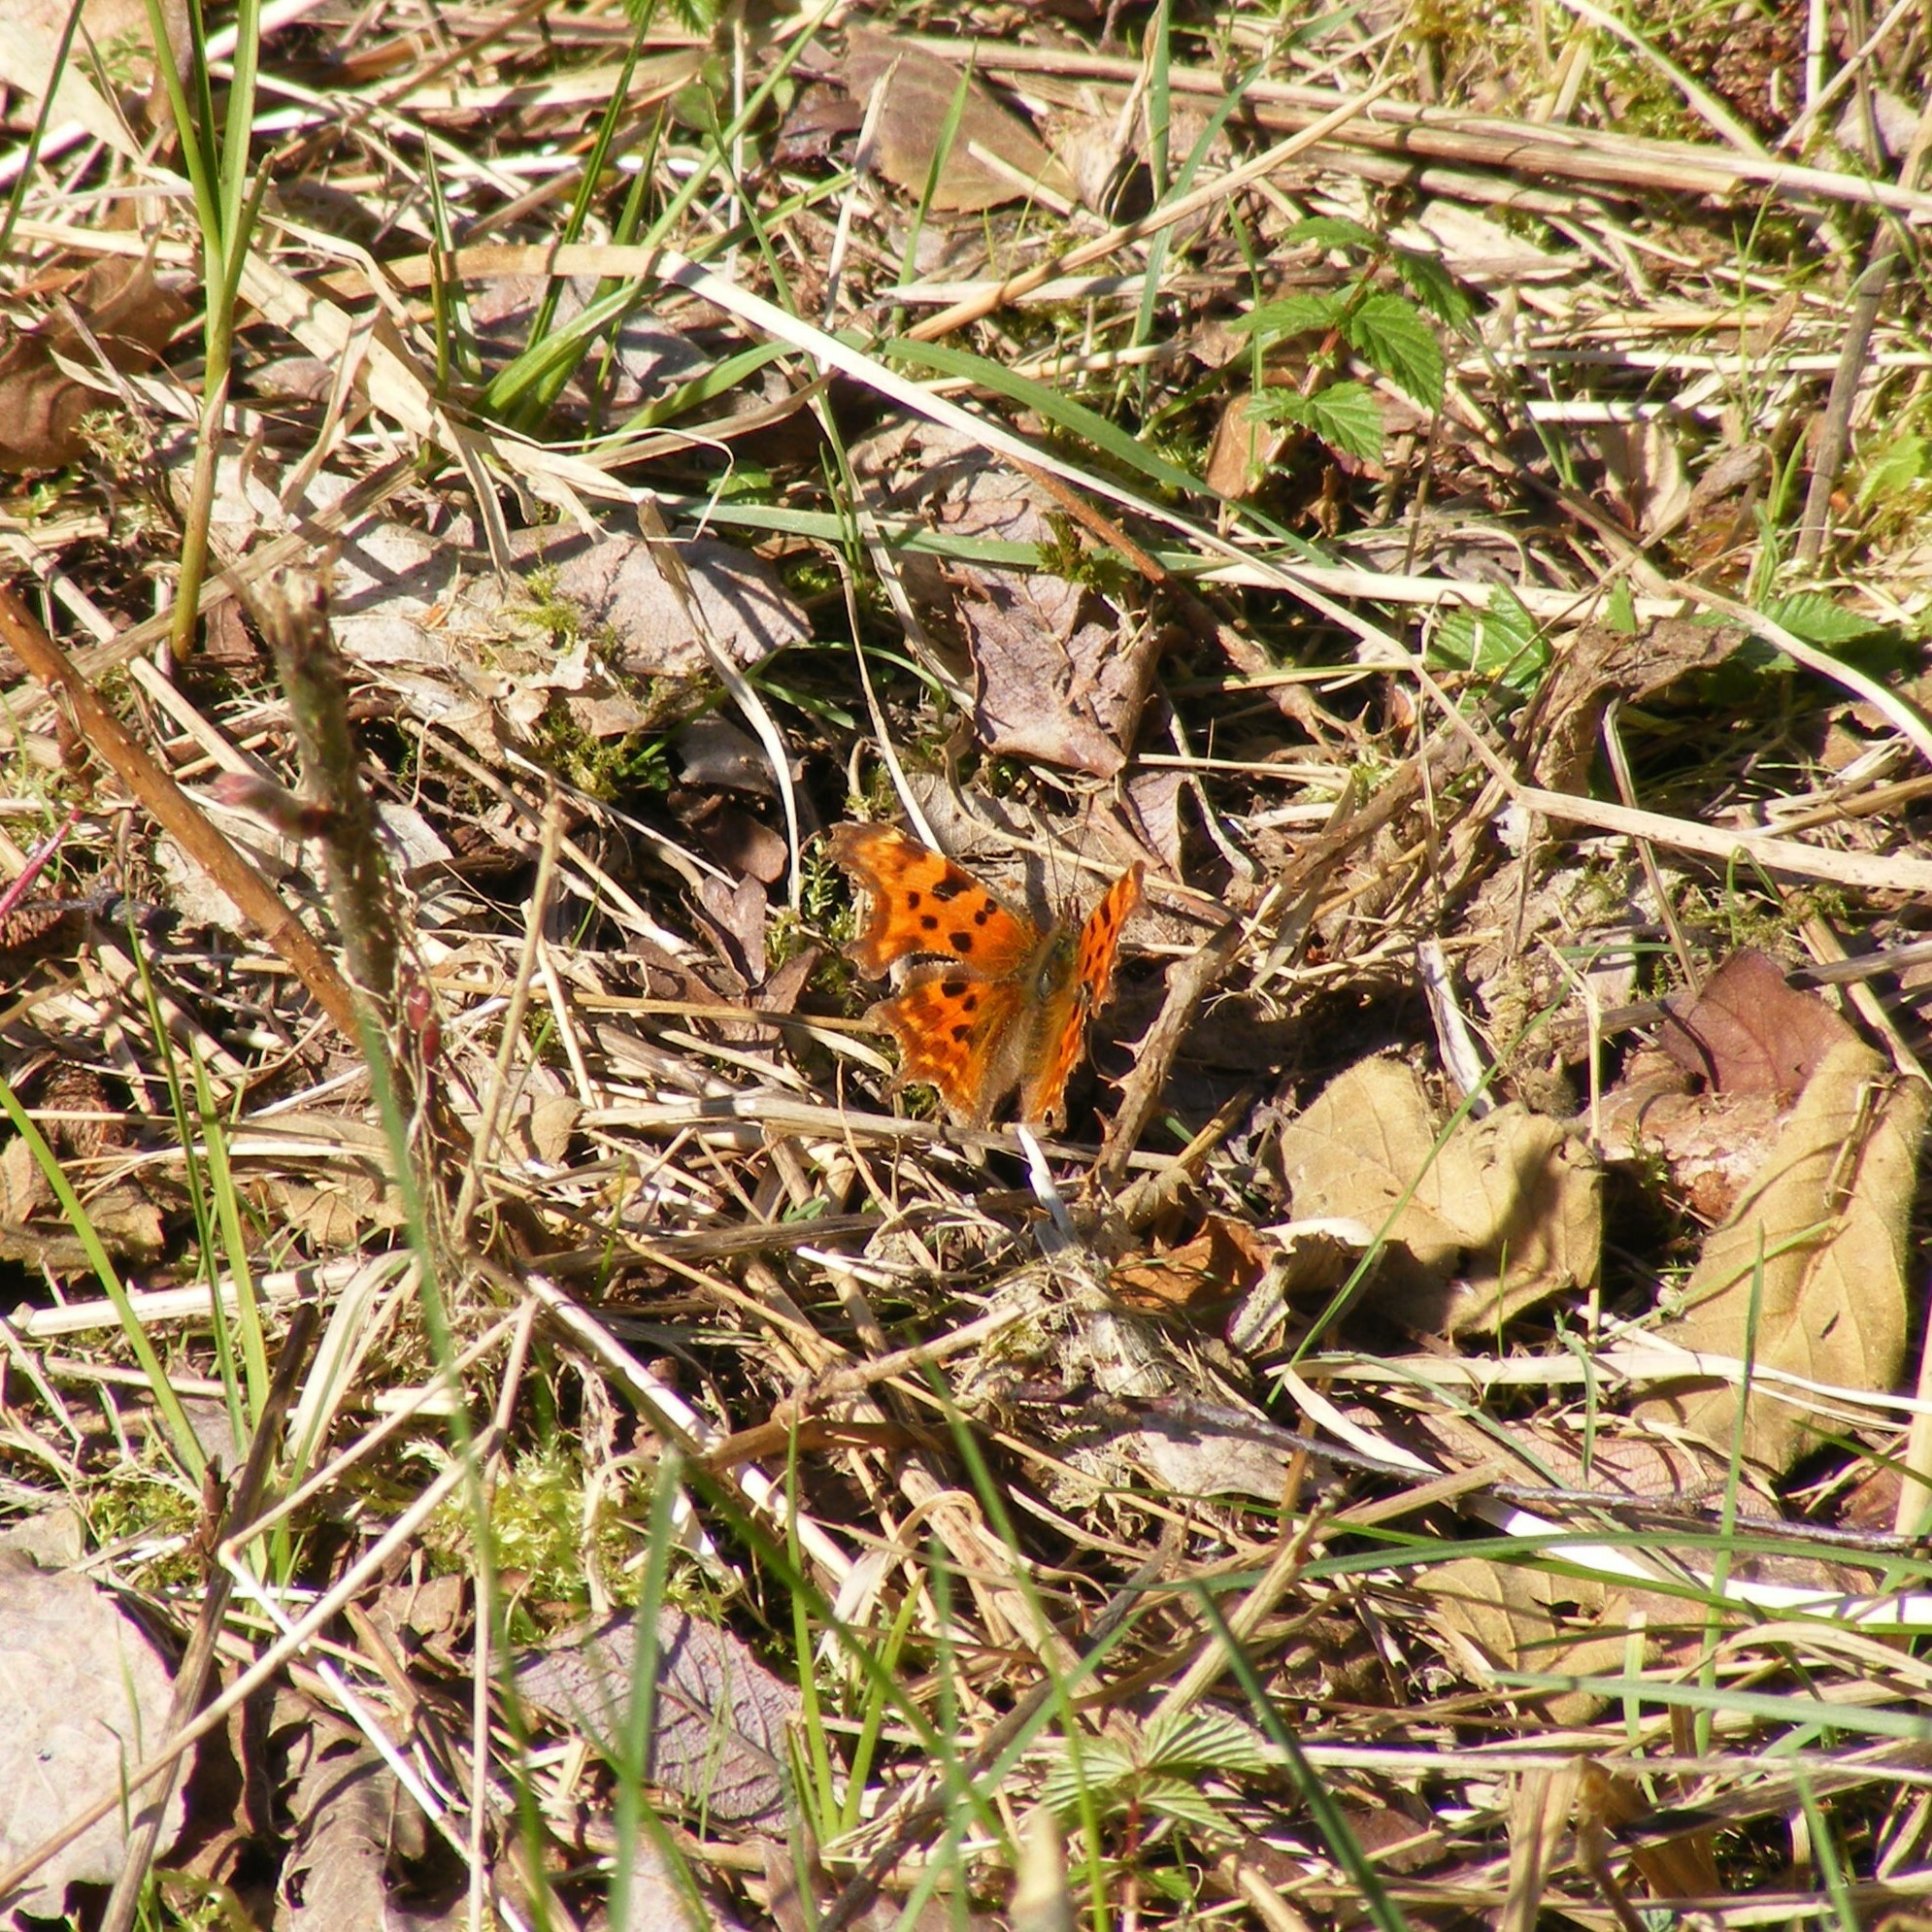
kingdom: Animalia
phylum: Arthropoda
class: Insecta
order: Lepidoptera
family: Nymphalidae
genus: Polygonia
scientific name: Polygonia c-album
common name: Comma
